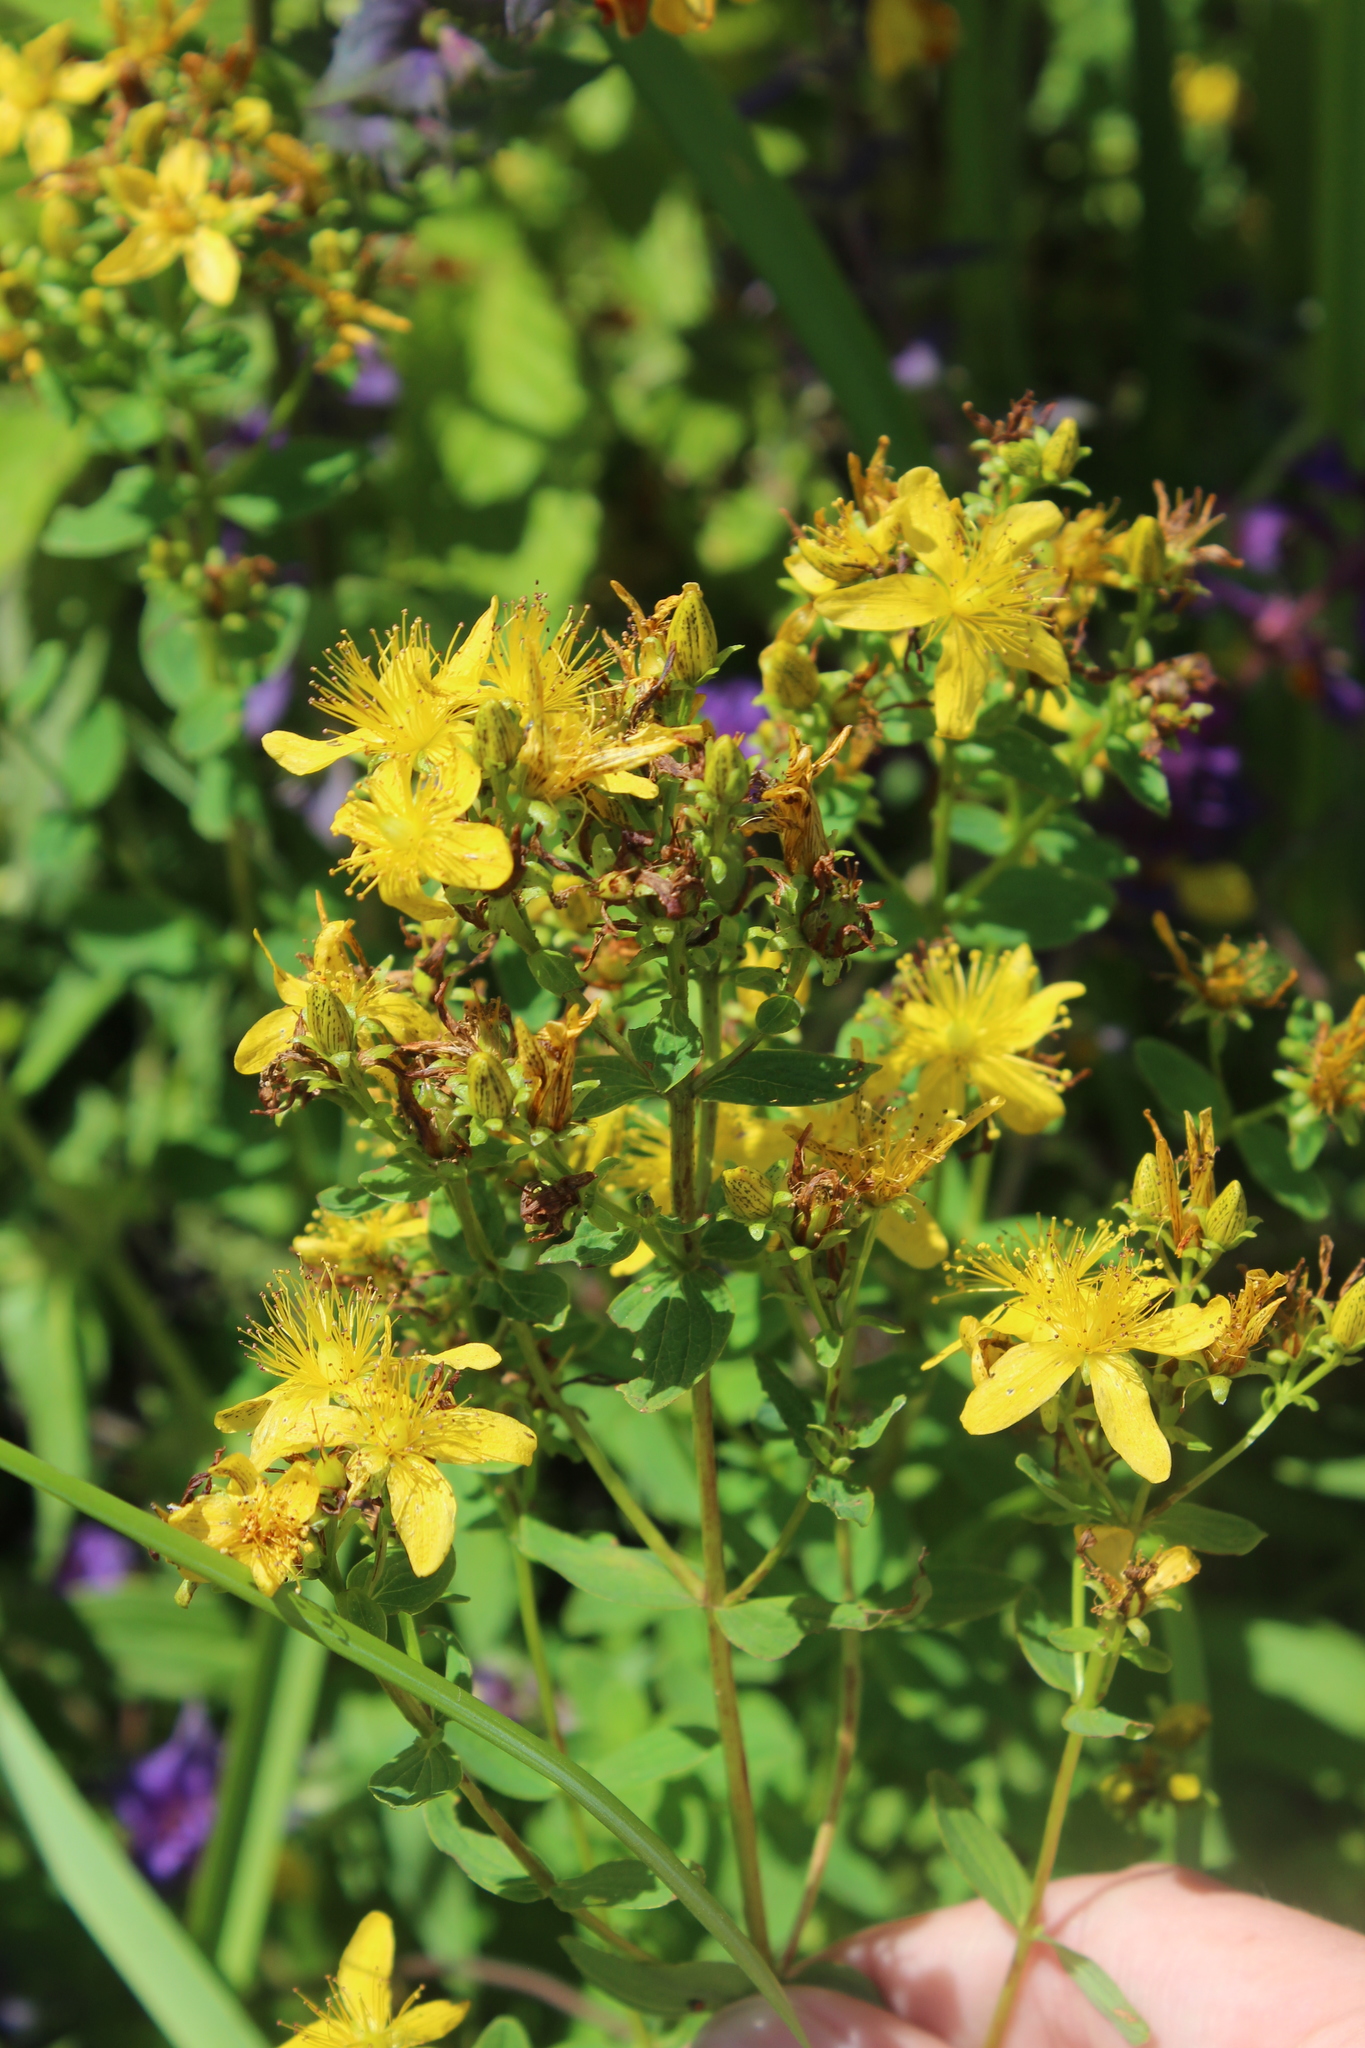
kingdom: Plantae
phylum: Tracheophyta
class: Magnoliopsida
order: Malpighiales
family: Hypericaceae
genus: Hypericum
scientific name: Hypericum maculatum
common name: Imperforate st. john's-wort
